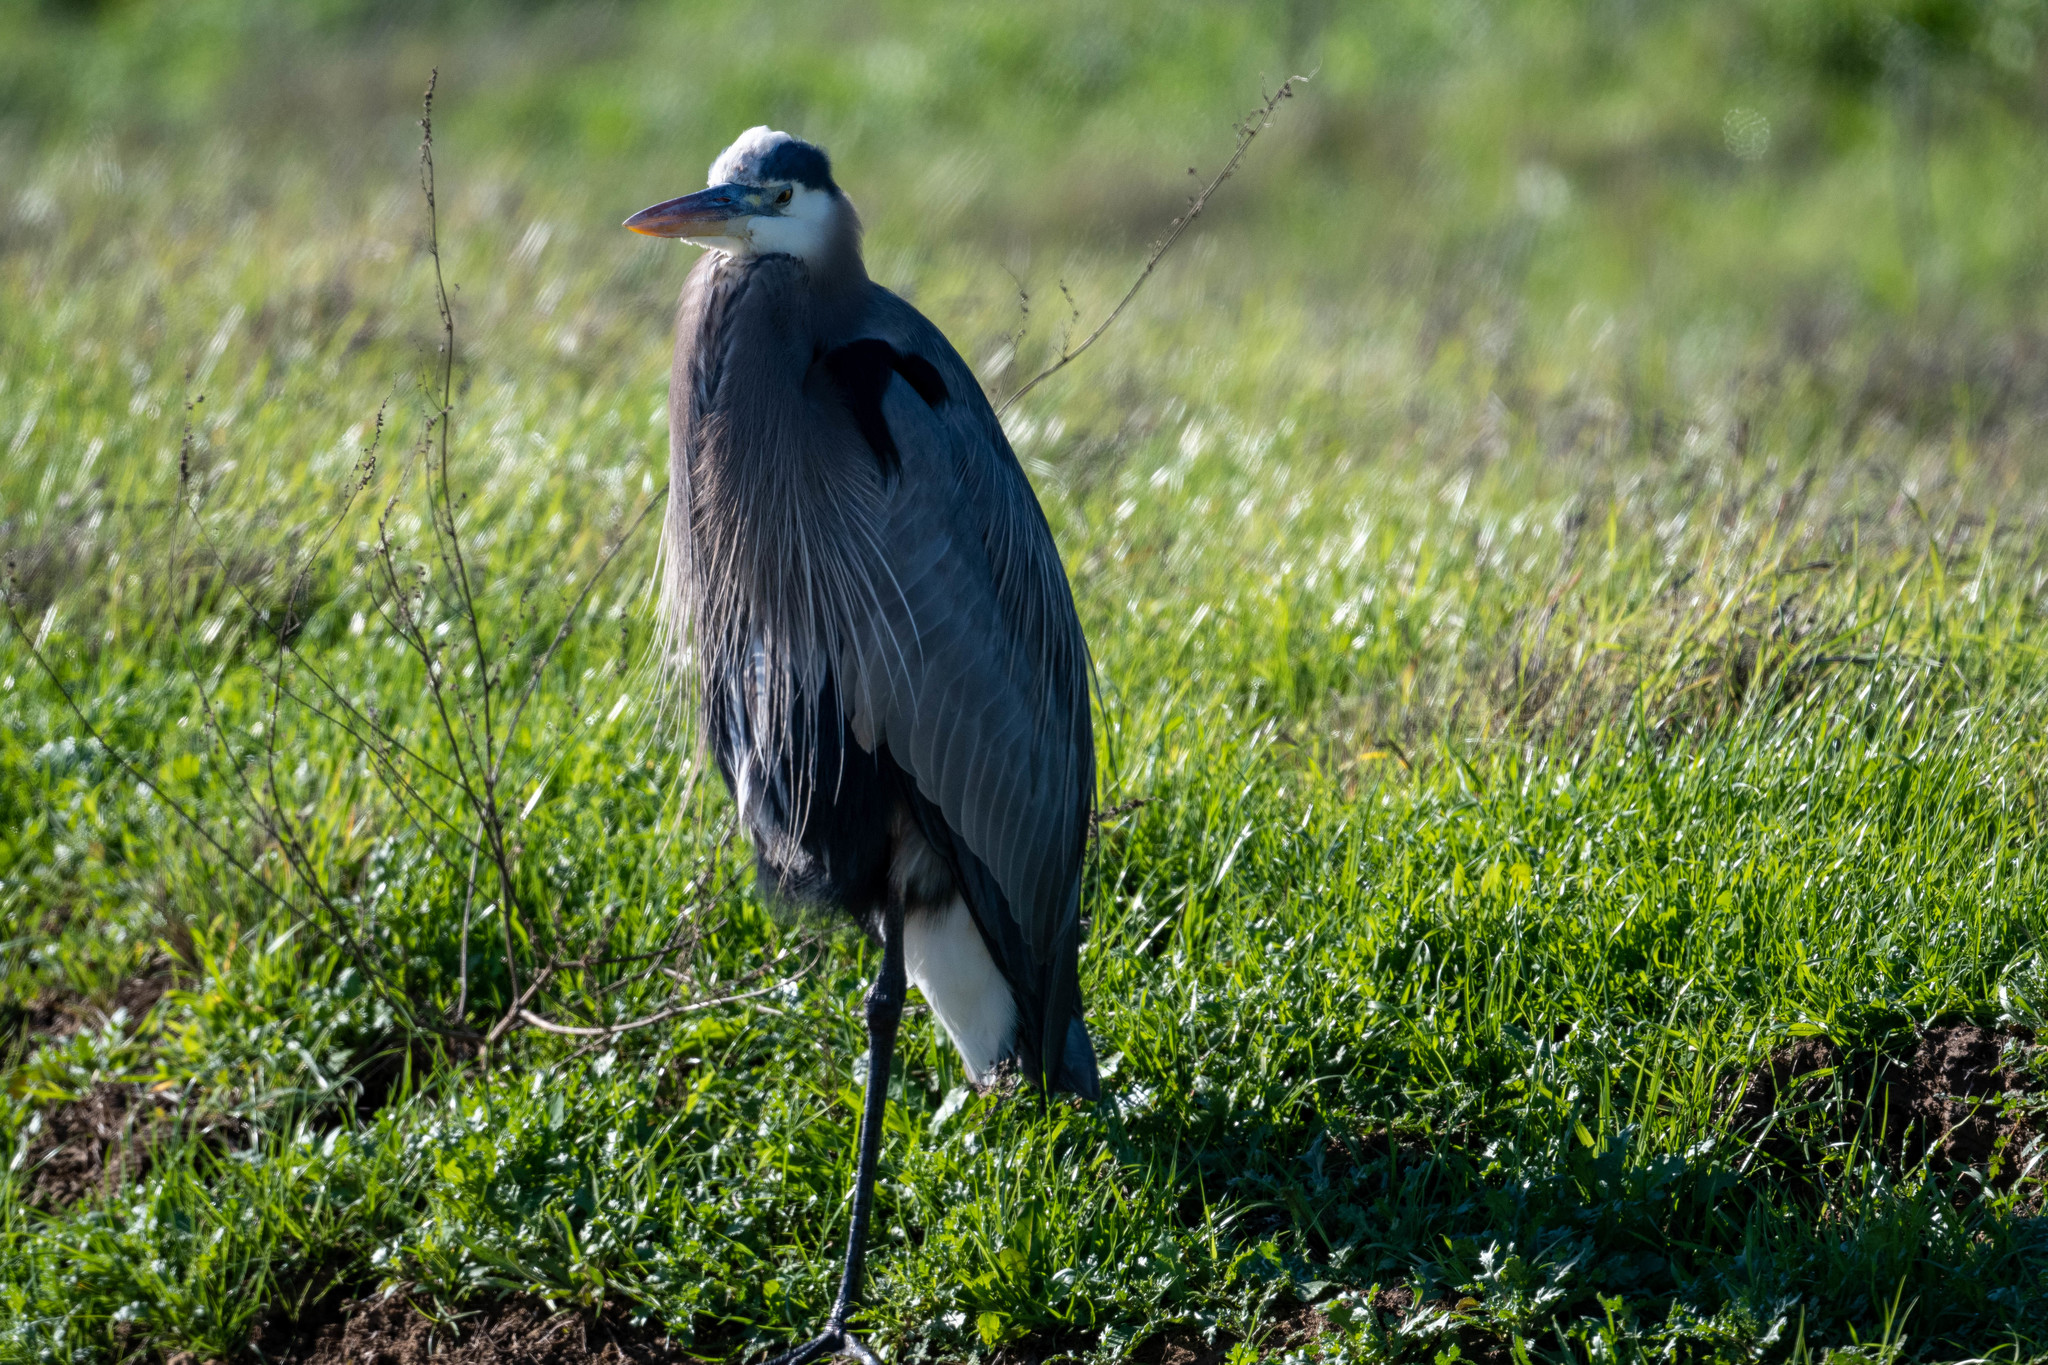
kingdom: Animalia
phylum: Chordata
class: Aves
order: Pelecaniformes
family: Ardeidae
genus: Ardea
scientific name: Ardea herodias
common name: Great blue heron
